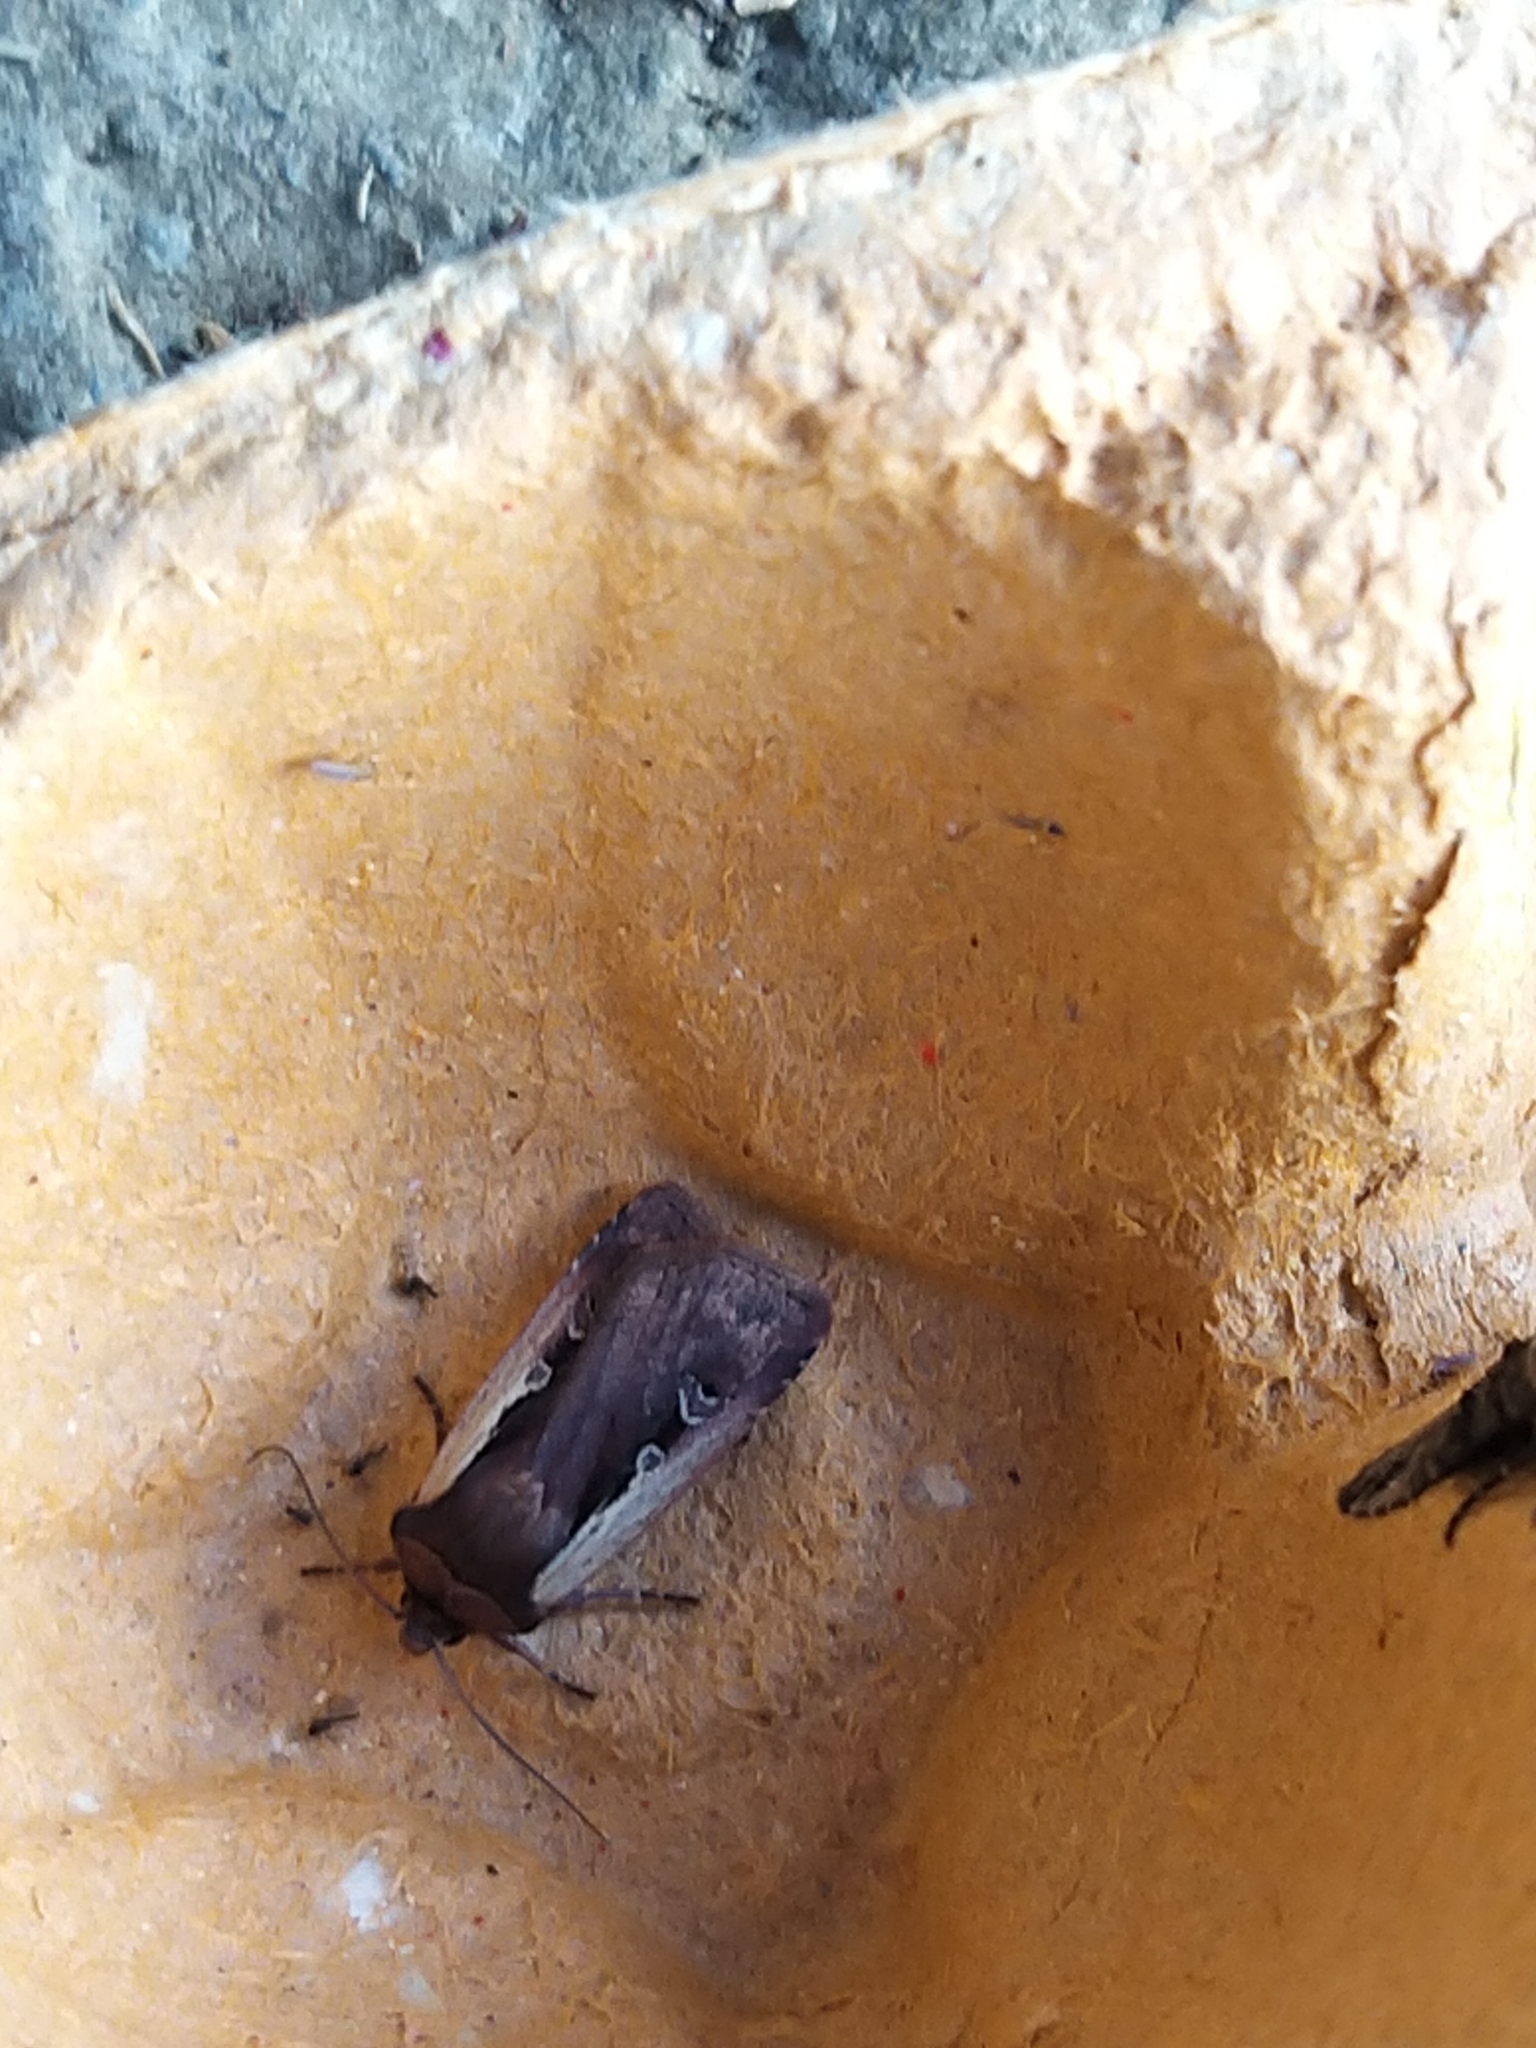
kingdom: Animalia
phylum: Arthropoda
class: Insecta
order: Lepidoptera
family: Noctuidae
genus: Ochropleura
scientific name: Ochropleura plecta
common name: Flame shoulder
